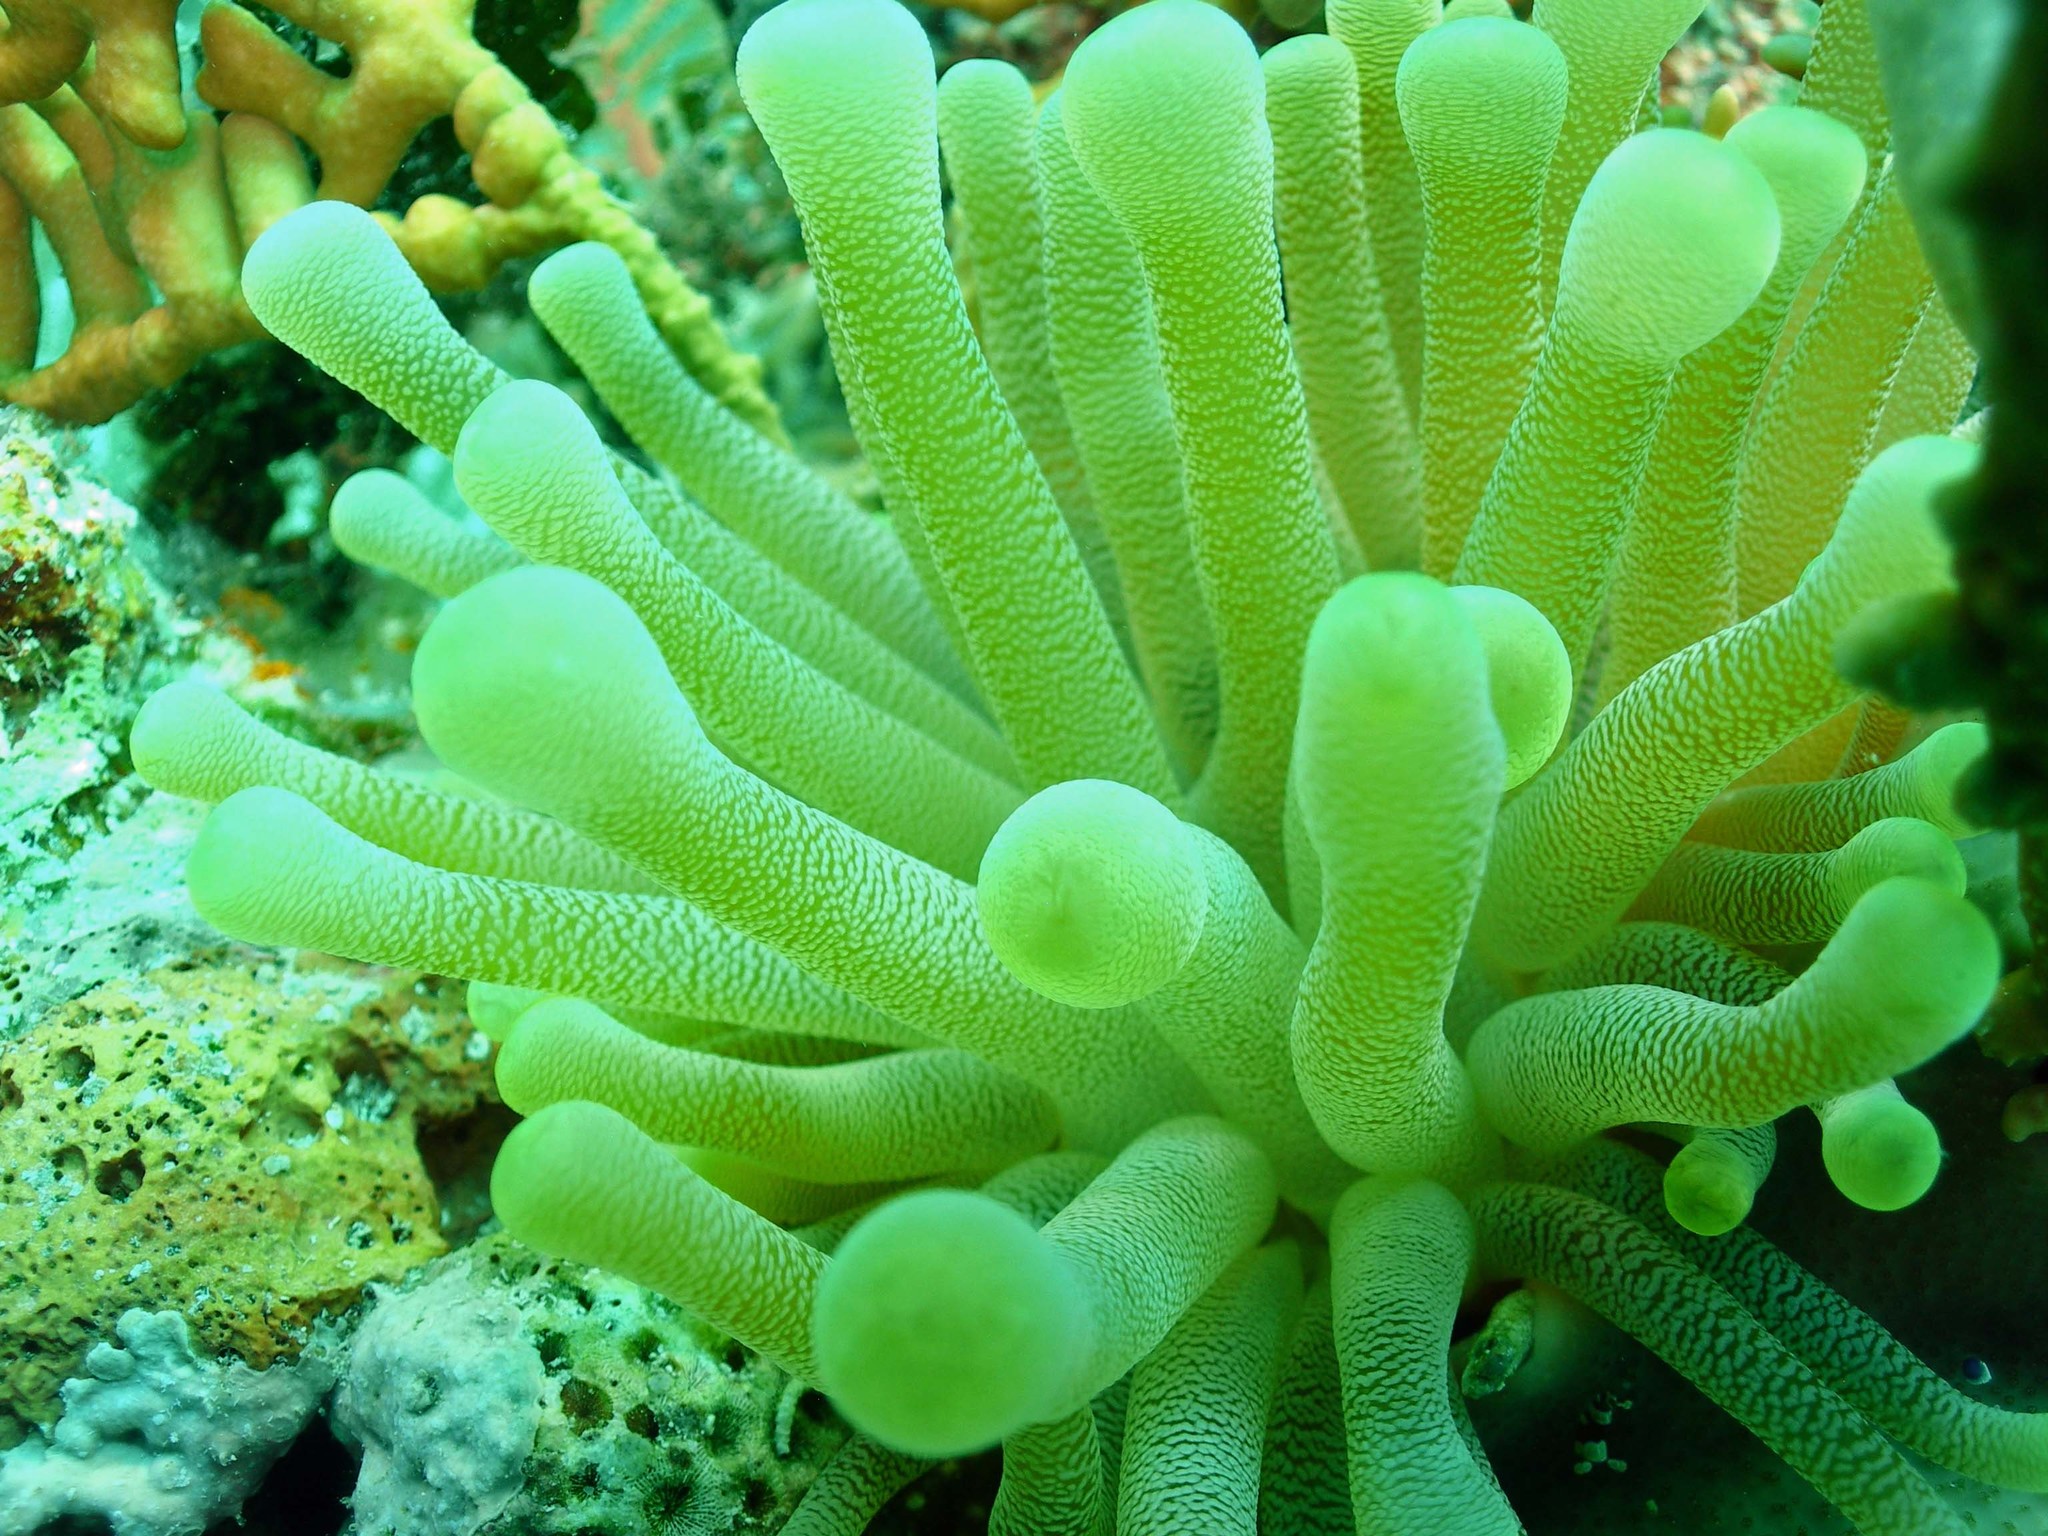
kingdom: Animalia
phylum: Cnidaria
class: Anthozoa
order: Actiniaria
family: Actiniidae
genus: Condylactis
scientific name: Condylactis gigantea
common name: Giant caribbean anemone
